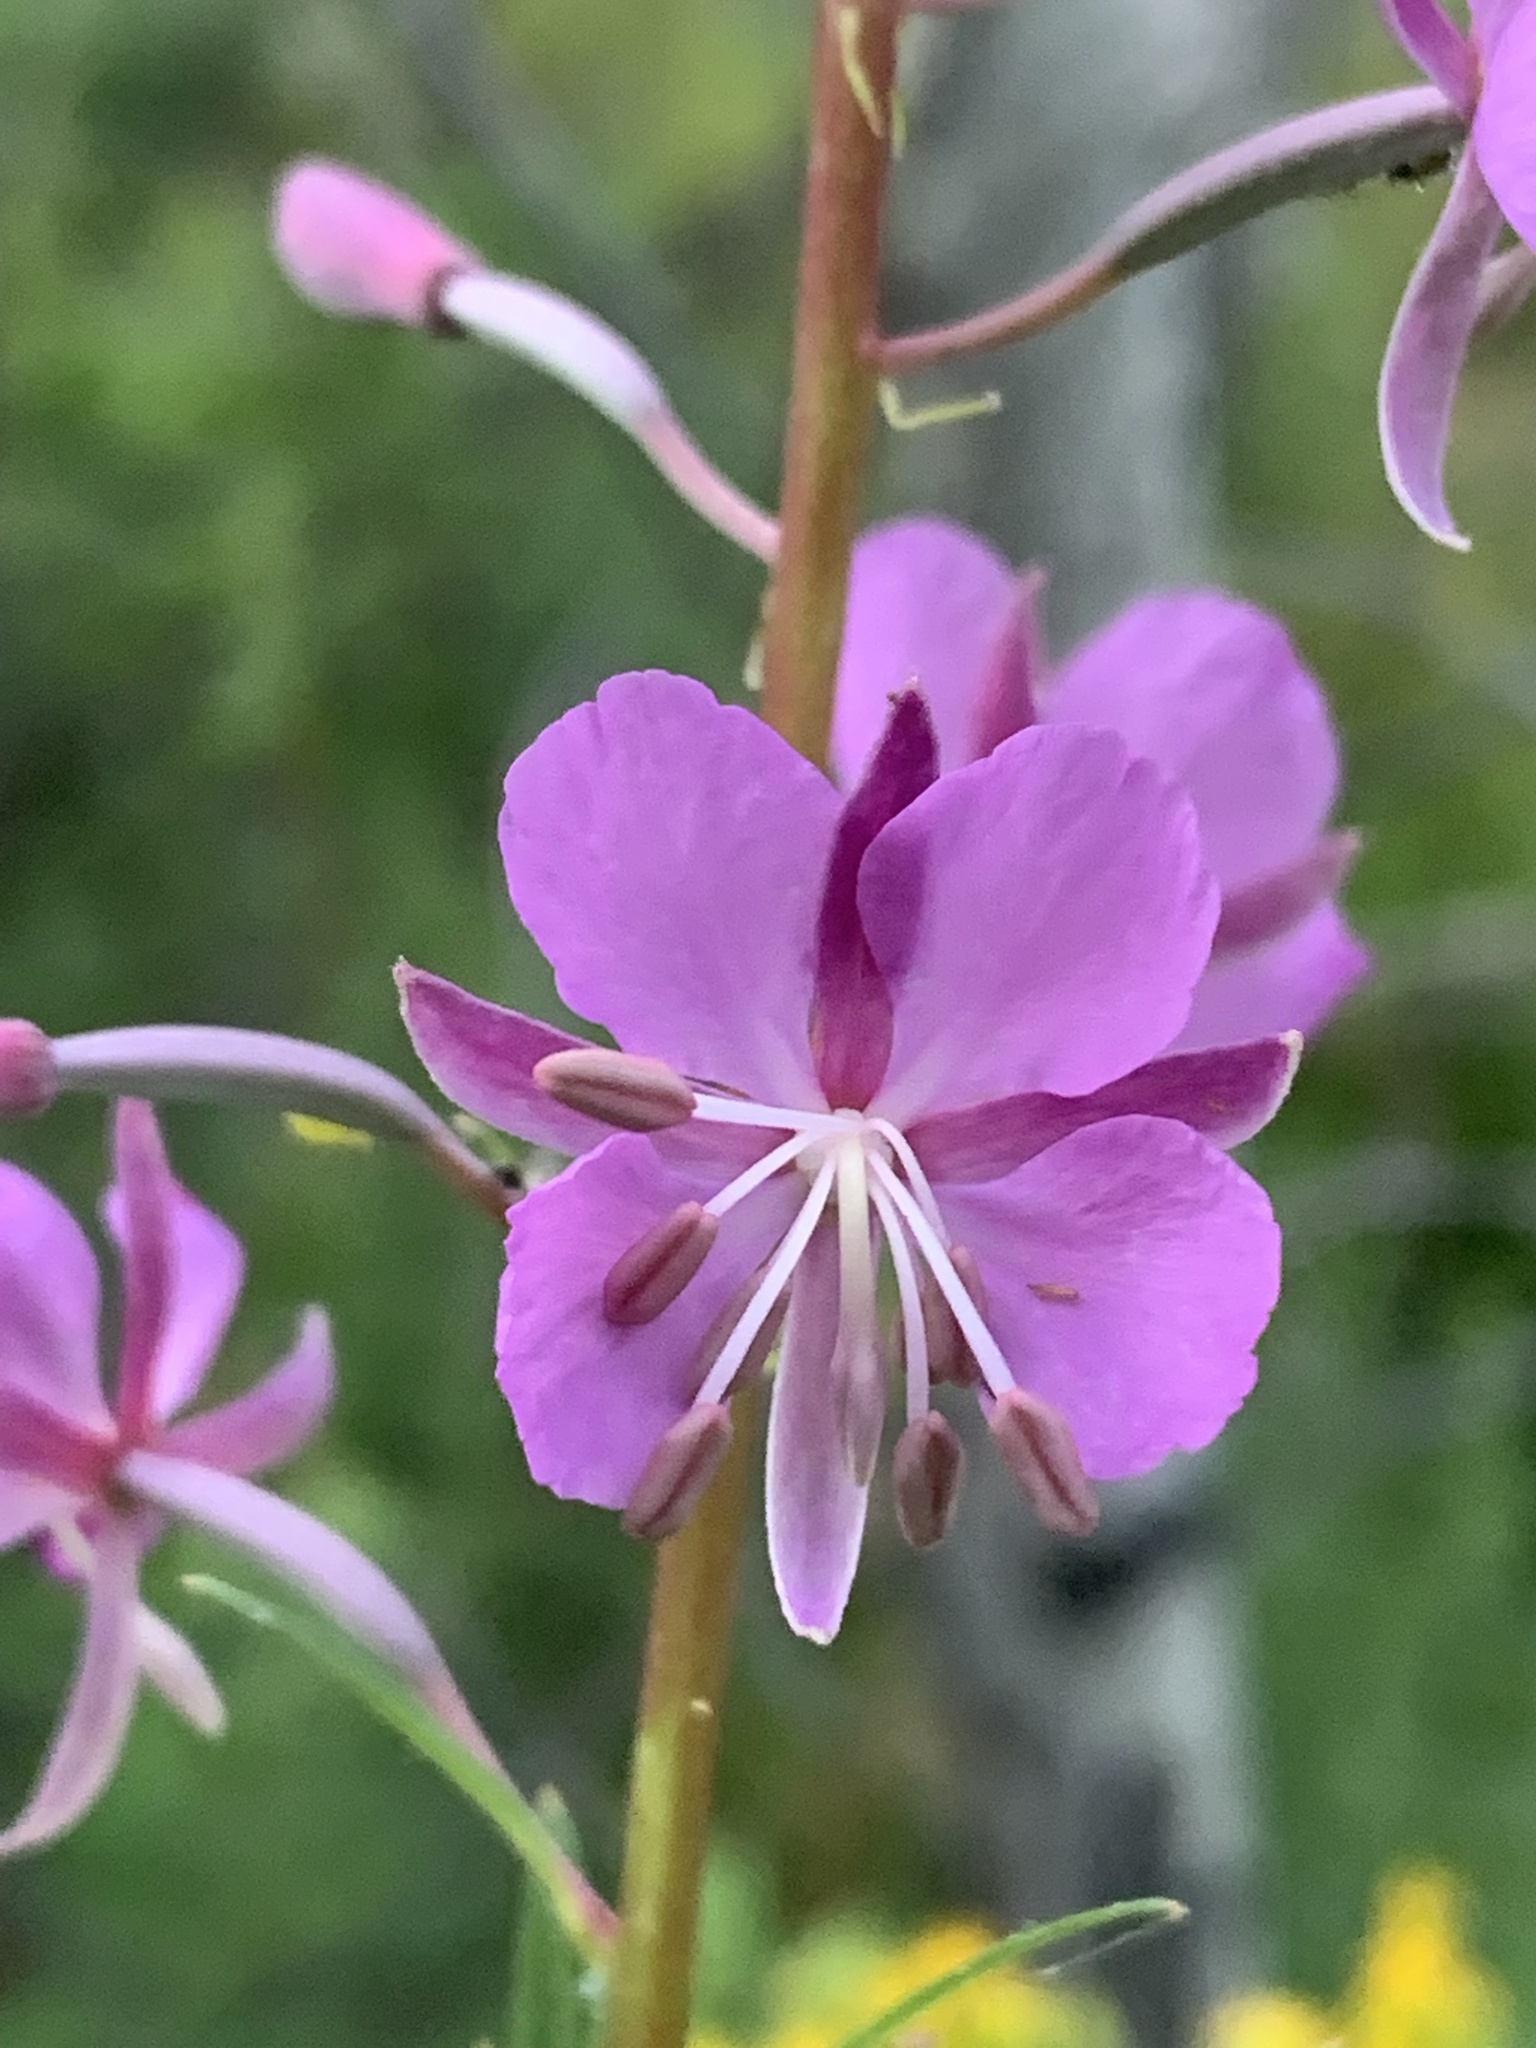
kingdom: Plantae
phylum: Tracheophyta
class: Magnoliopsida
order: Myrtales
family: Onagraceae
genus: Chamaenerion
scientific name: Chamaenerion angustifolium
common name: Fireweed
